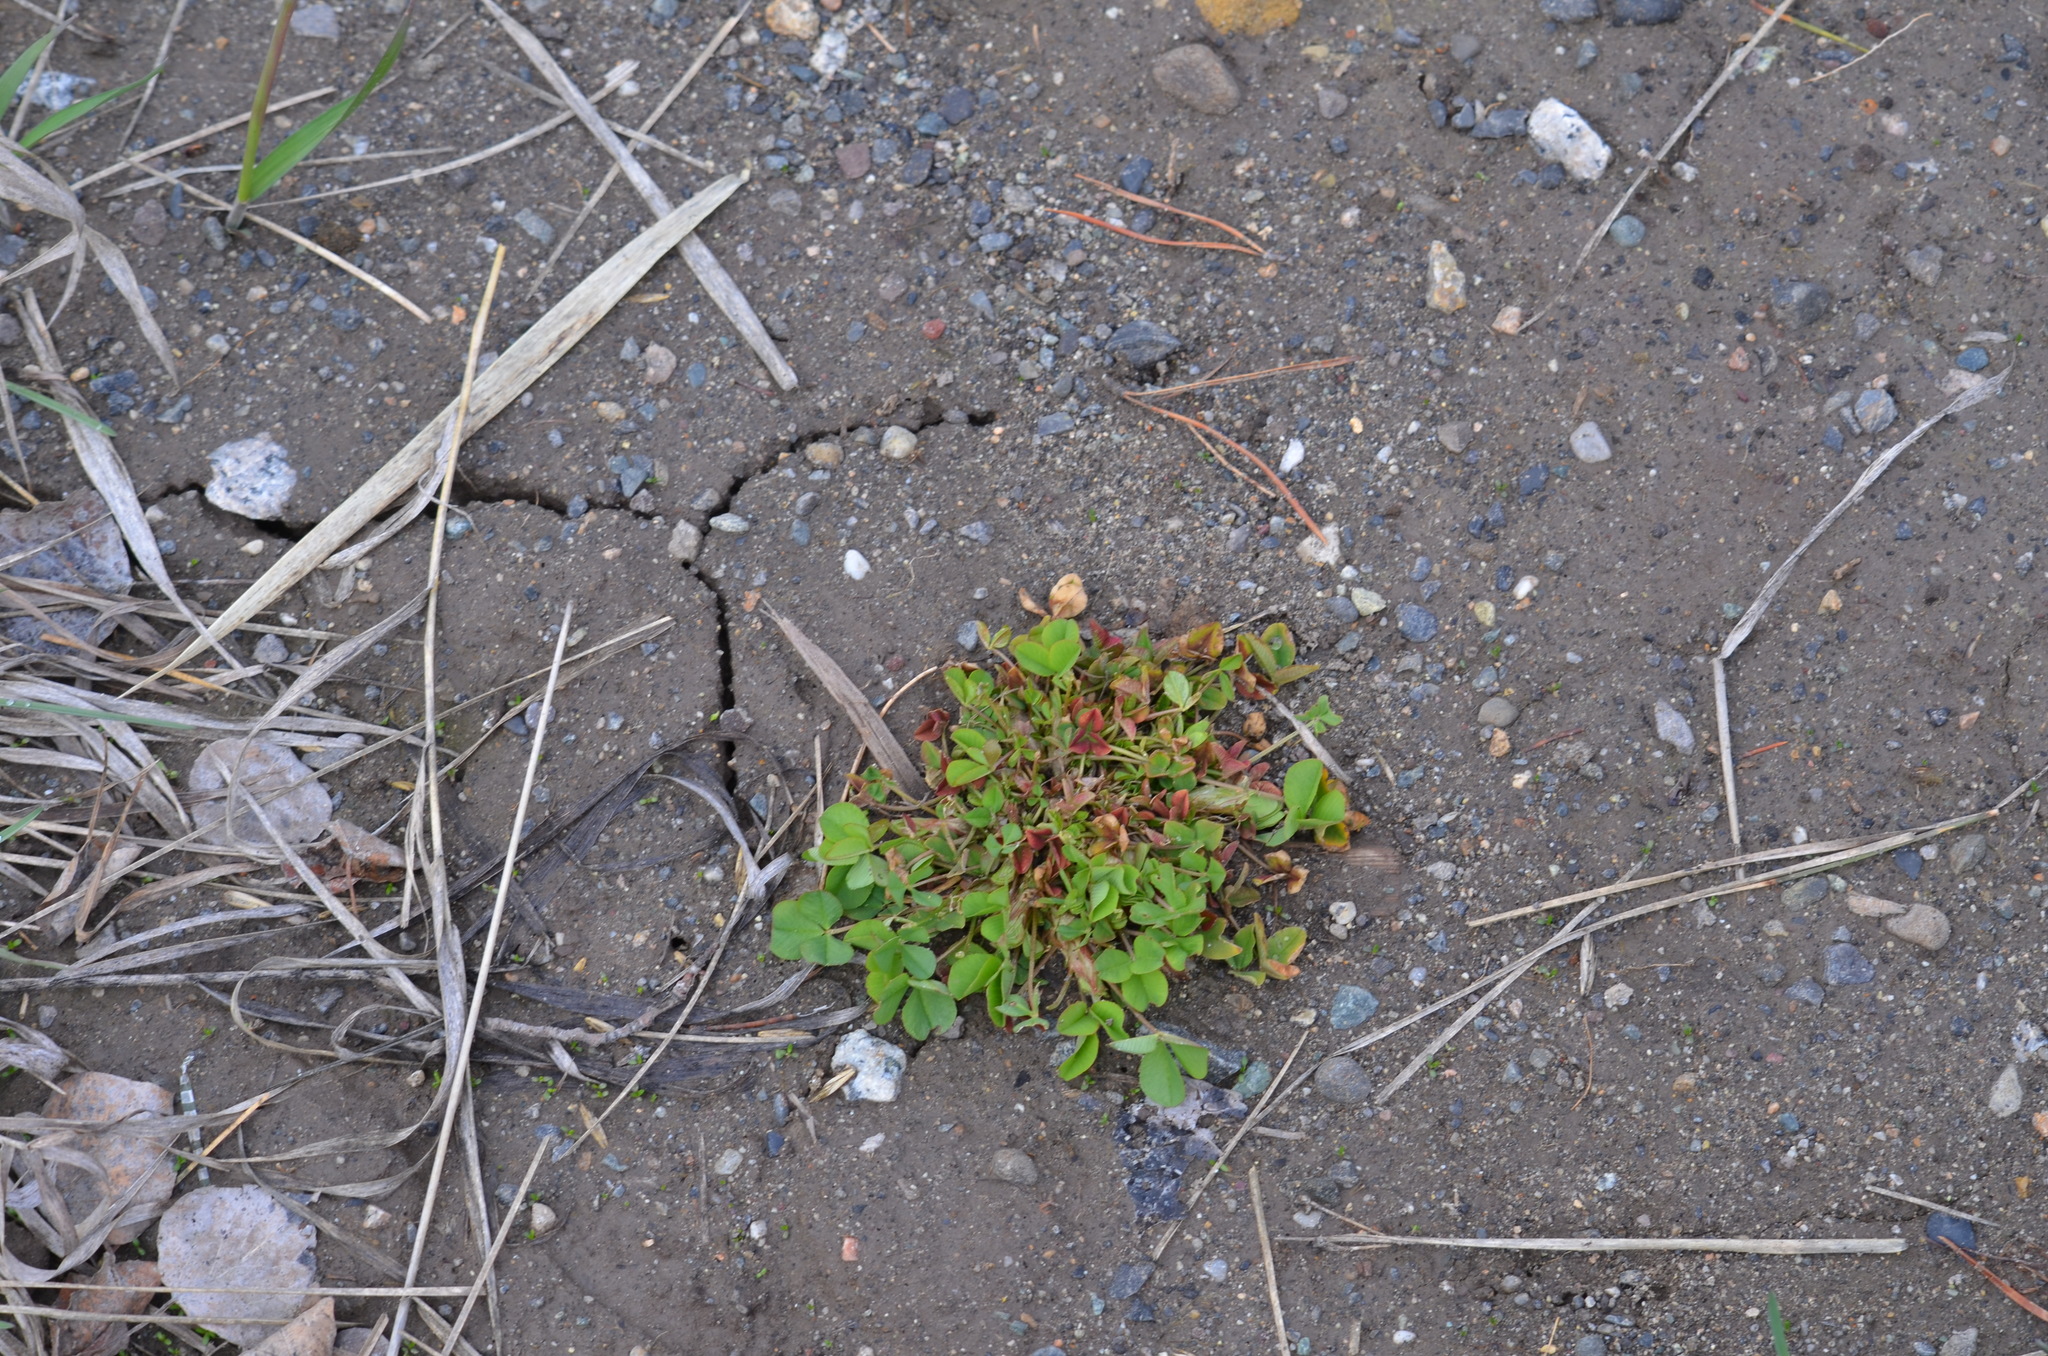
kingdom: Plantae
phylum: Tracheophyta
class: Magnoliopsida
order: Fabales
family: Fabaceae
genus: Trifolium
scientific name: Trifolium hybridum
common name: Alsike clover
